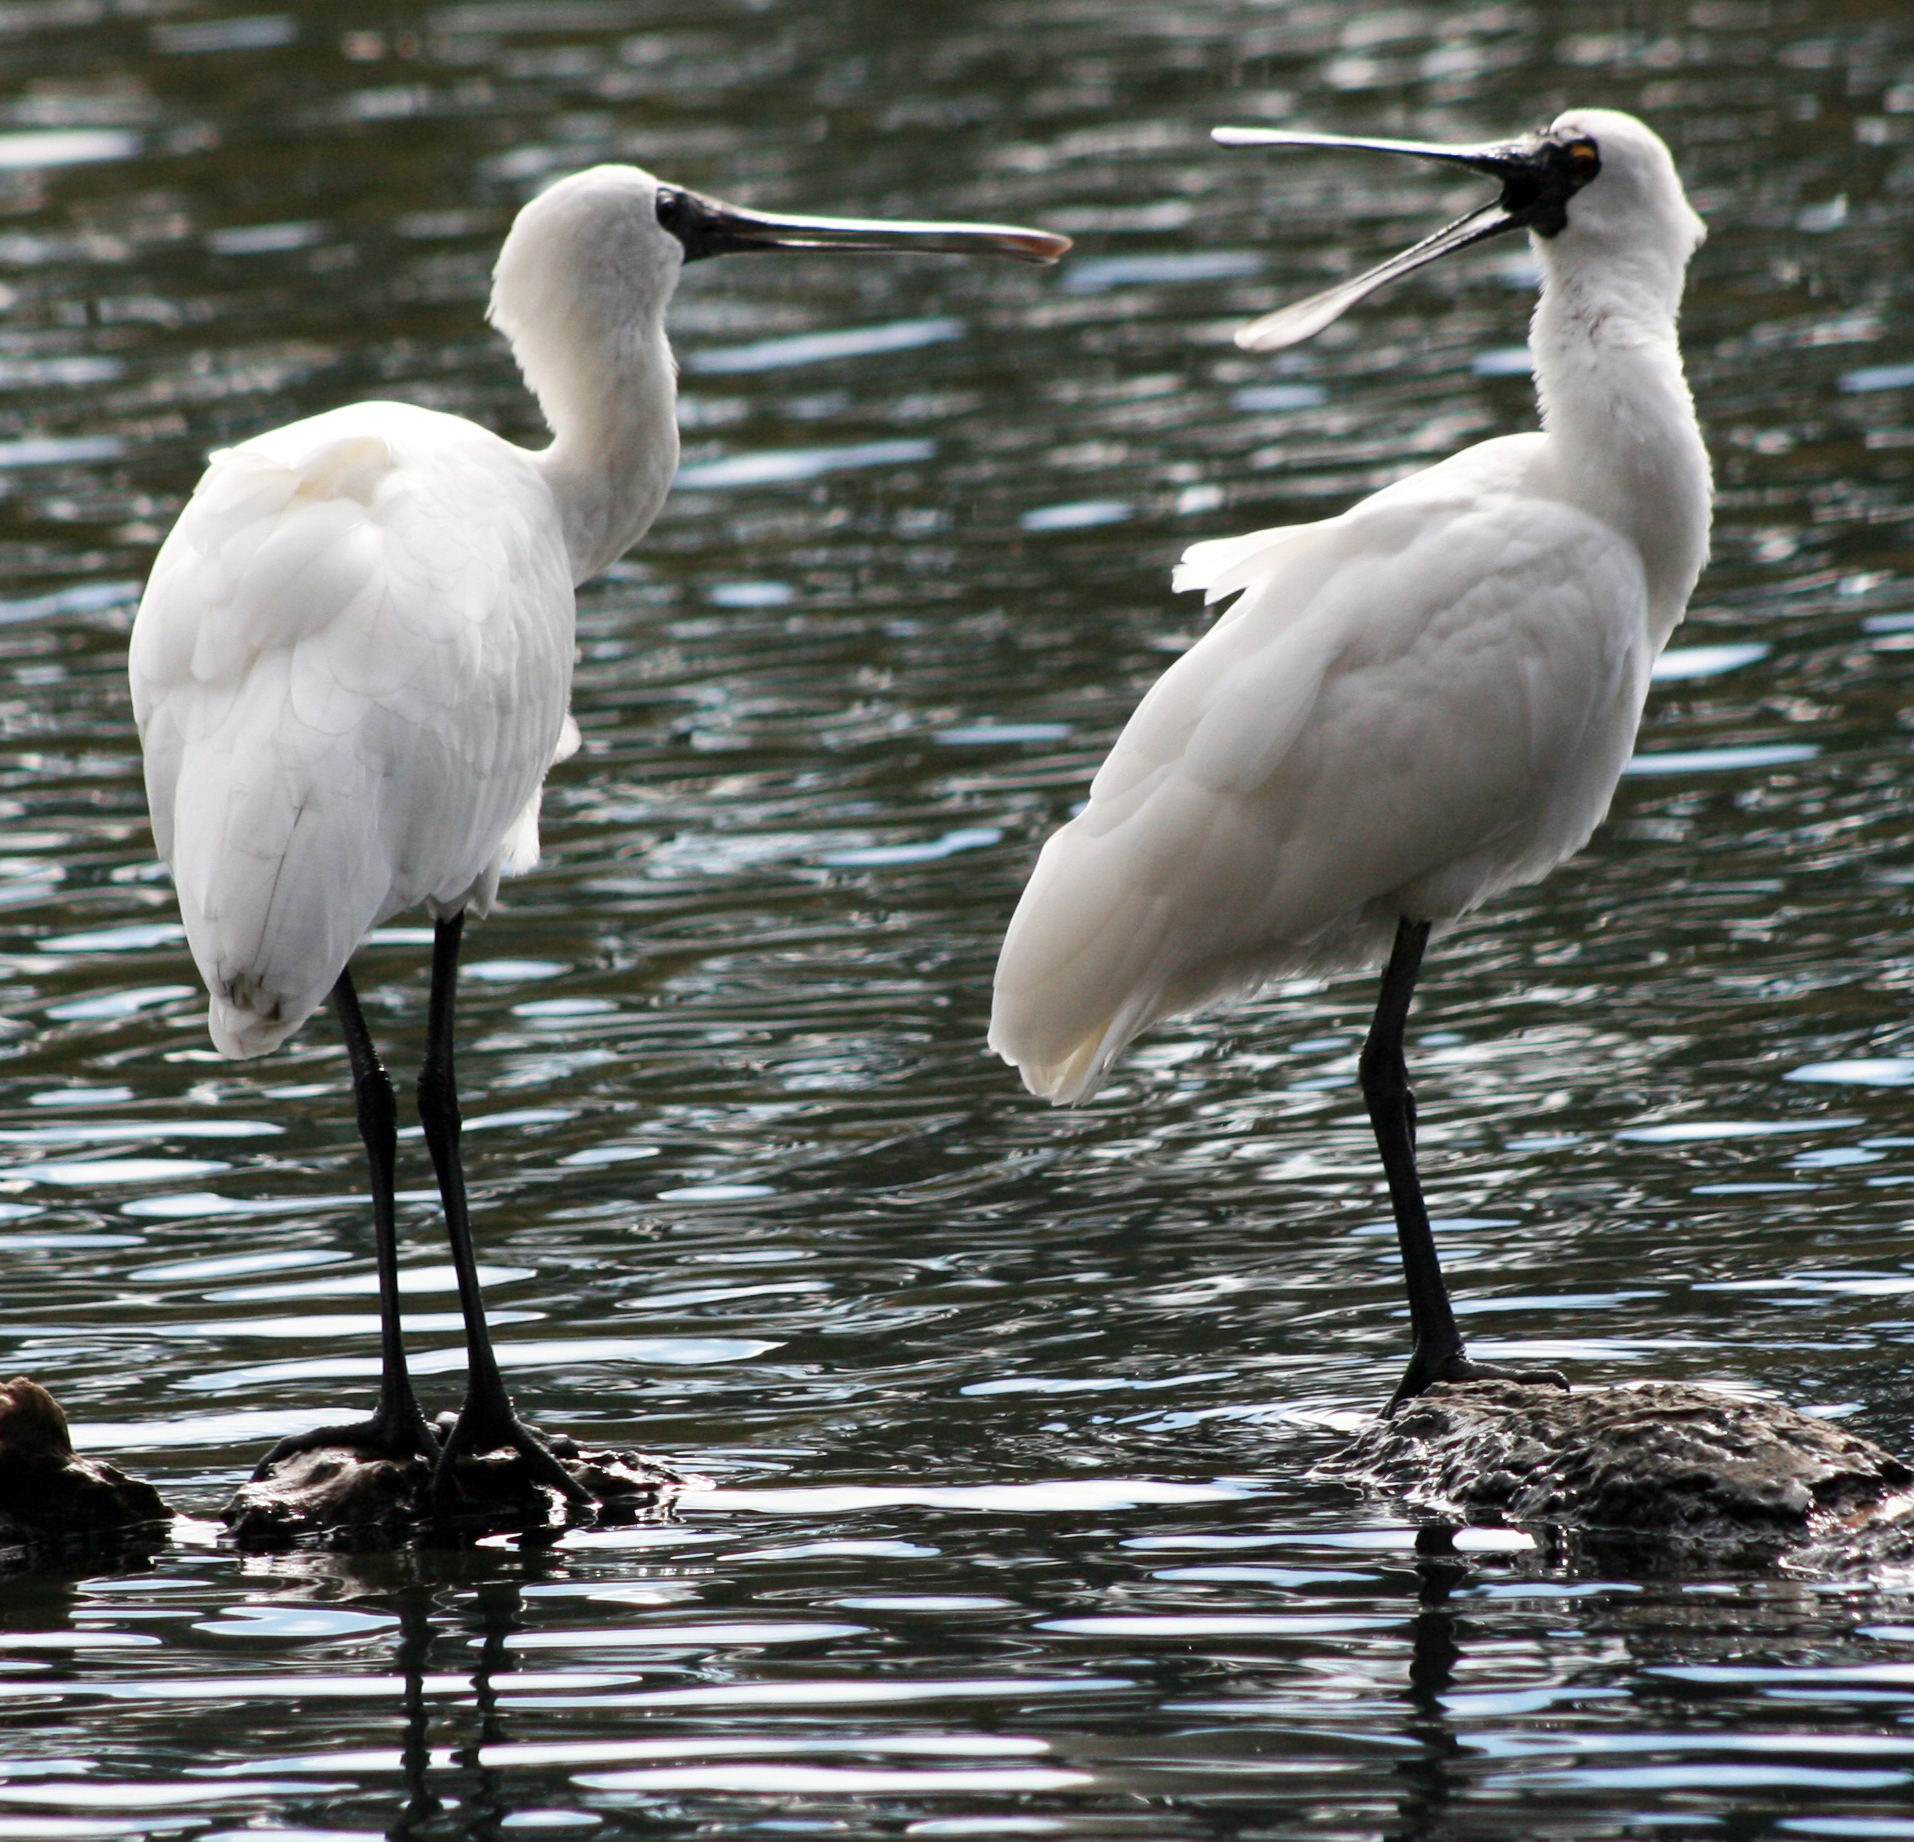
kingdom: Animalia
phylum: Chordata
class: Aves
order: Pelecaniformes
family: Threskiornithidae
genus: Platalea
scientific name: Platalea regia
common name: Royal spoonbill
